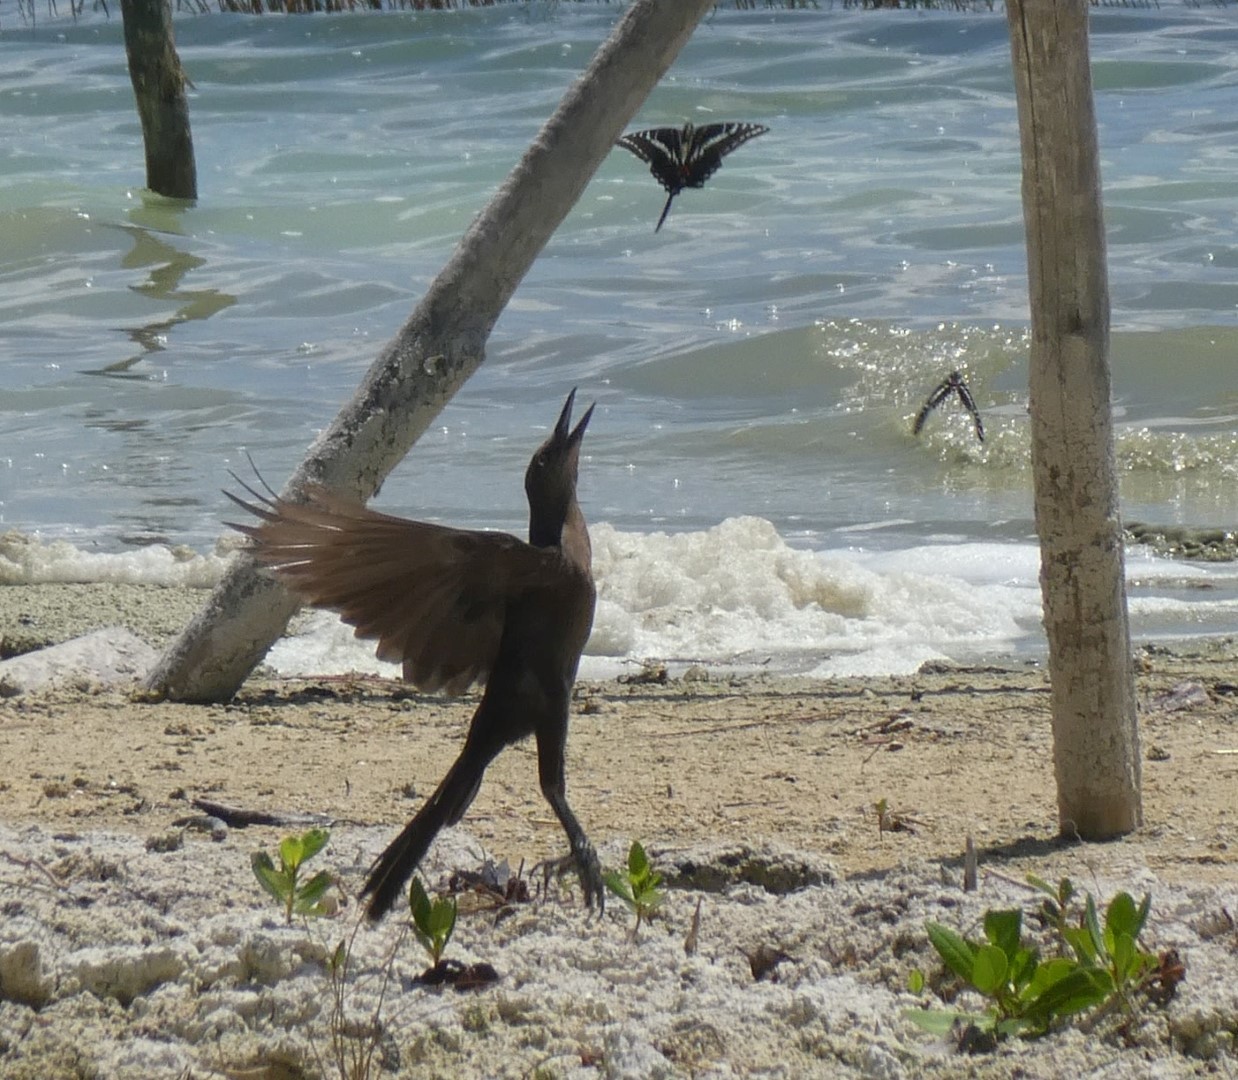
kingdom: Animalia
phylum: Arthropoda
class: Insecta
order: Lepidoptera
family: Papilionidae
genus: Protographium
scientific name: Protographium philolaus
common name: Dark zebra swallowtail
